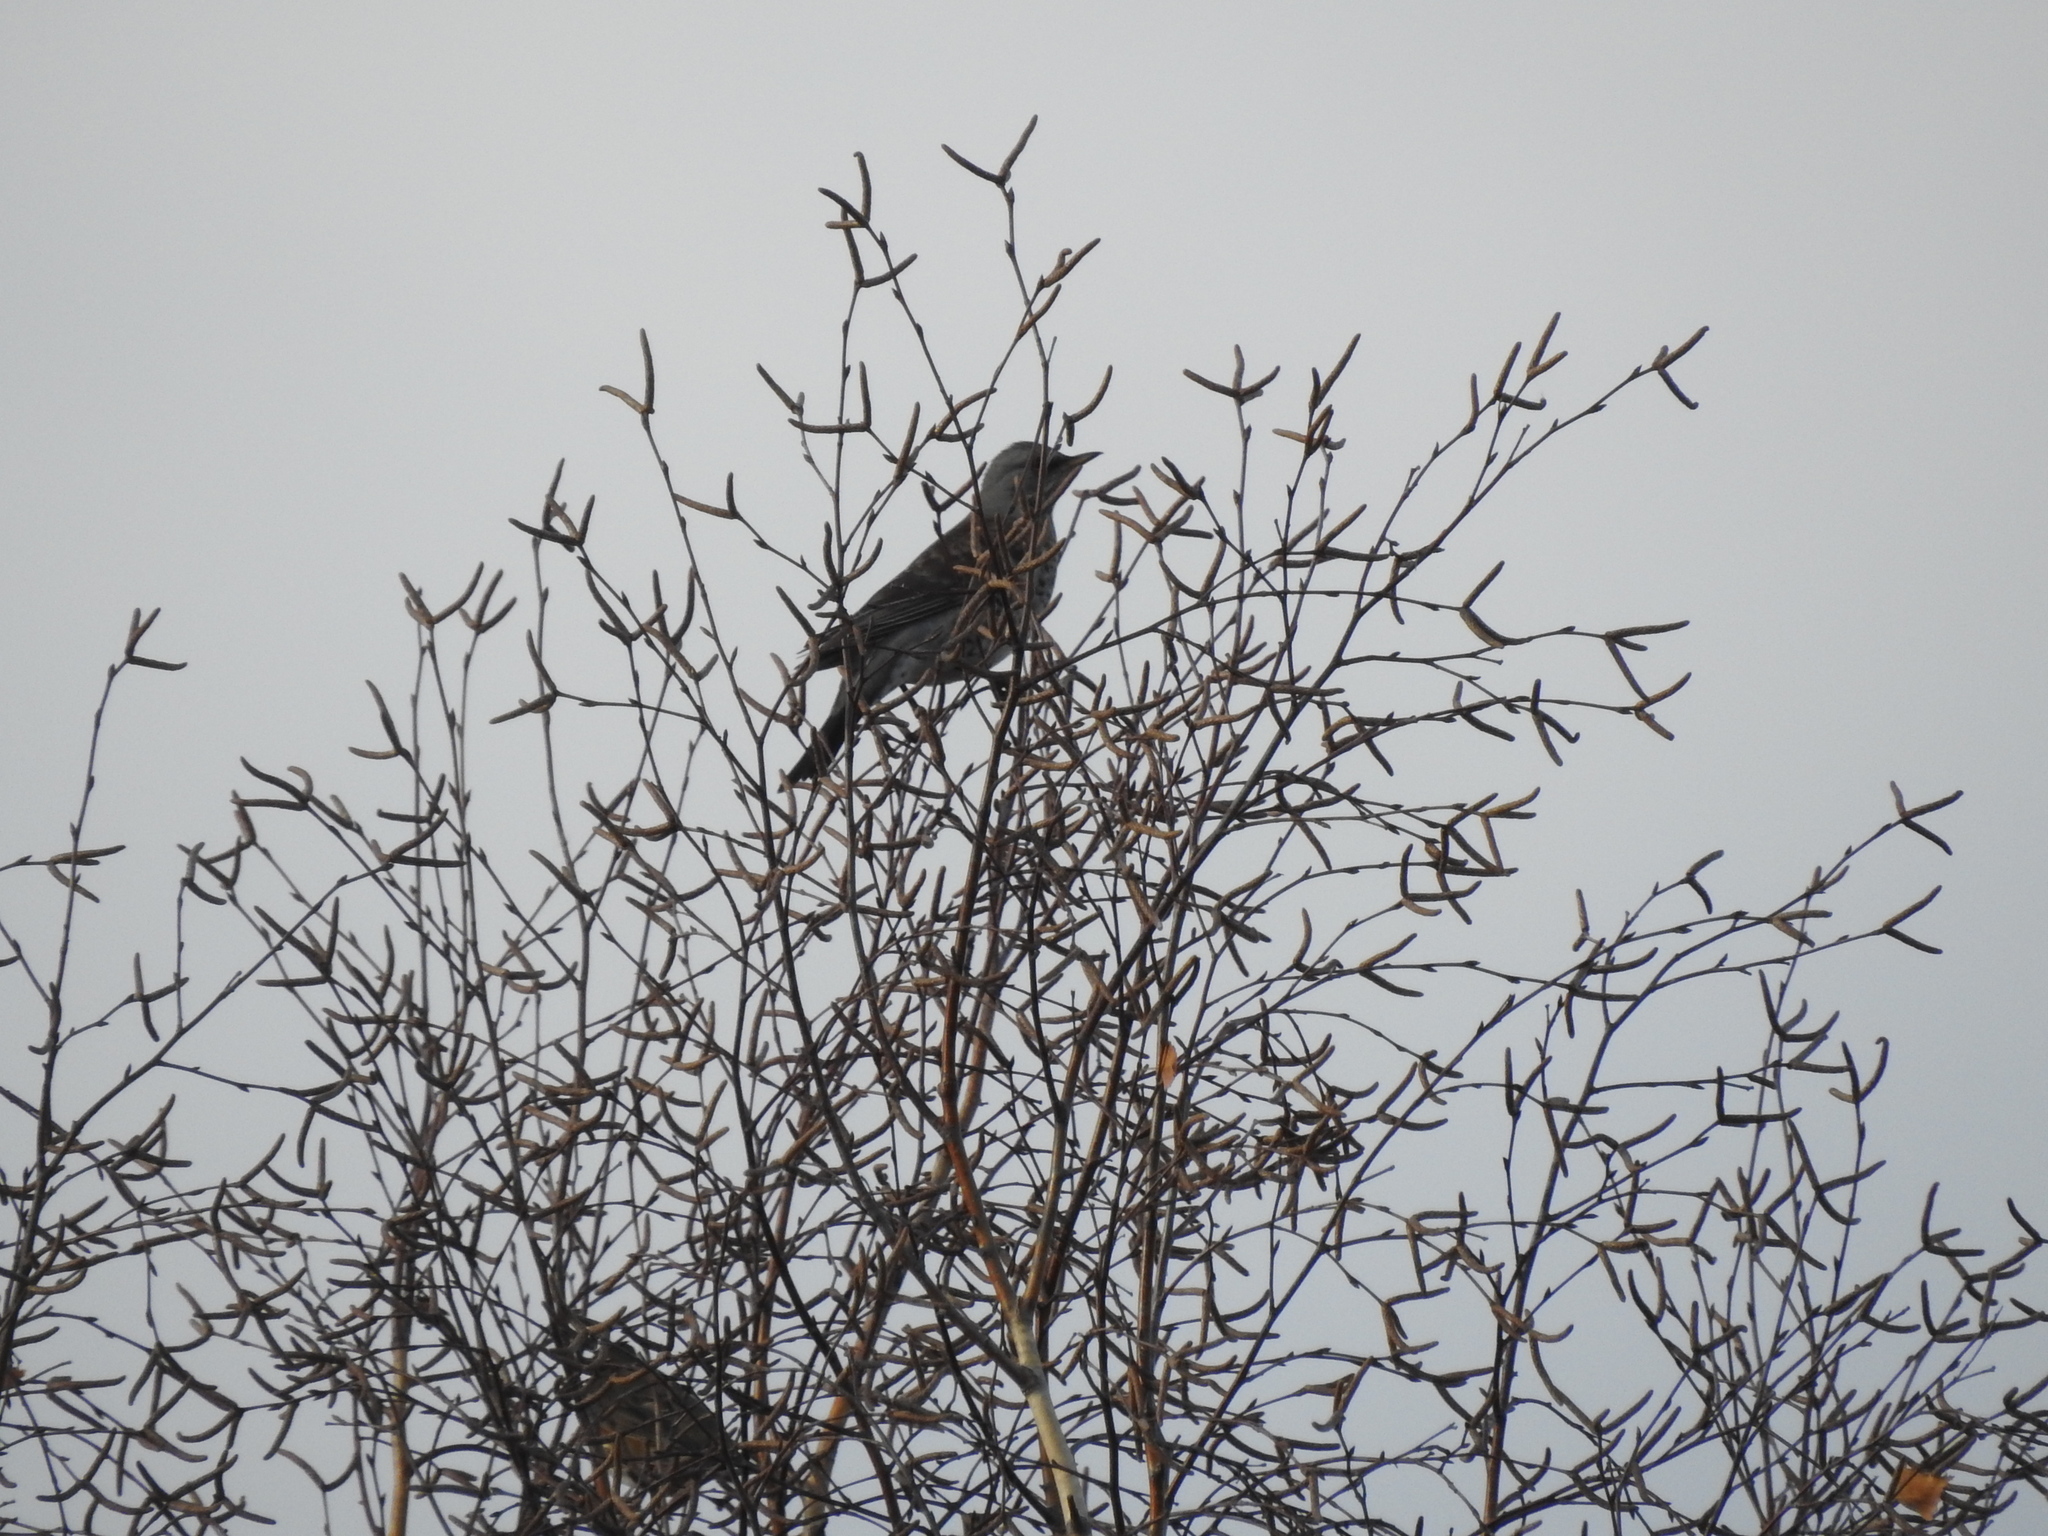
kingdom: Animalia
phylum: Chordata
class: Aves
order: Passeriformes
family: Turdidae
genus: Turdus
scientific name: Turdus pilaris
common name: Fieldfare
